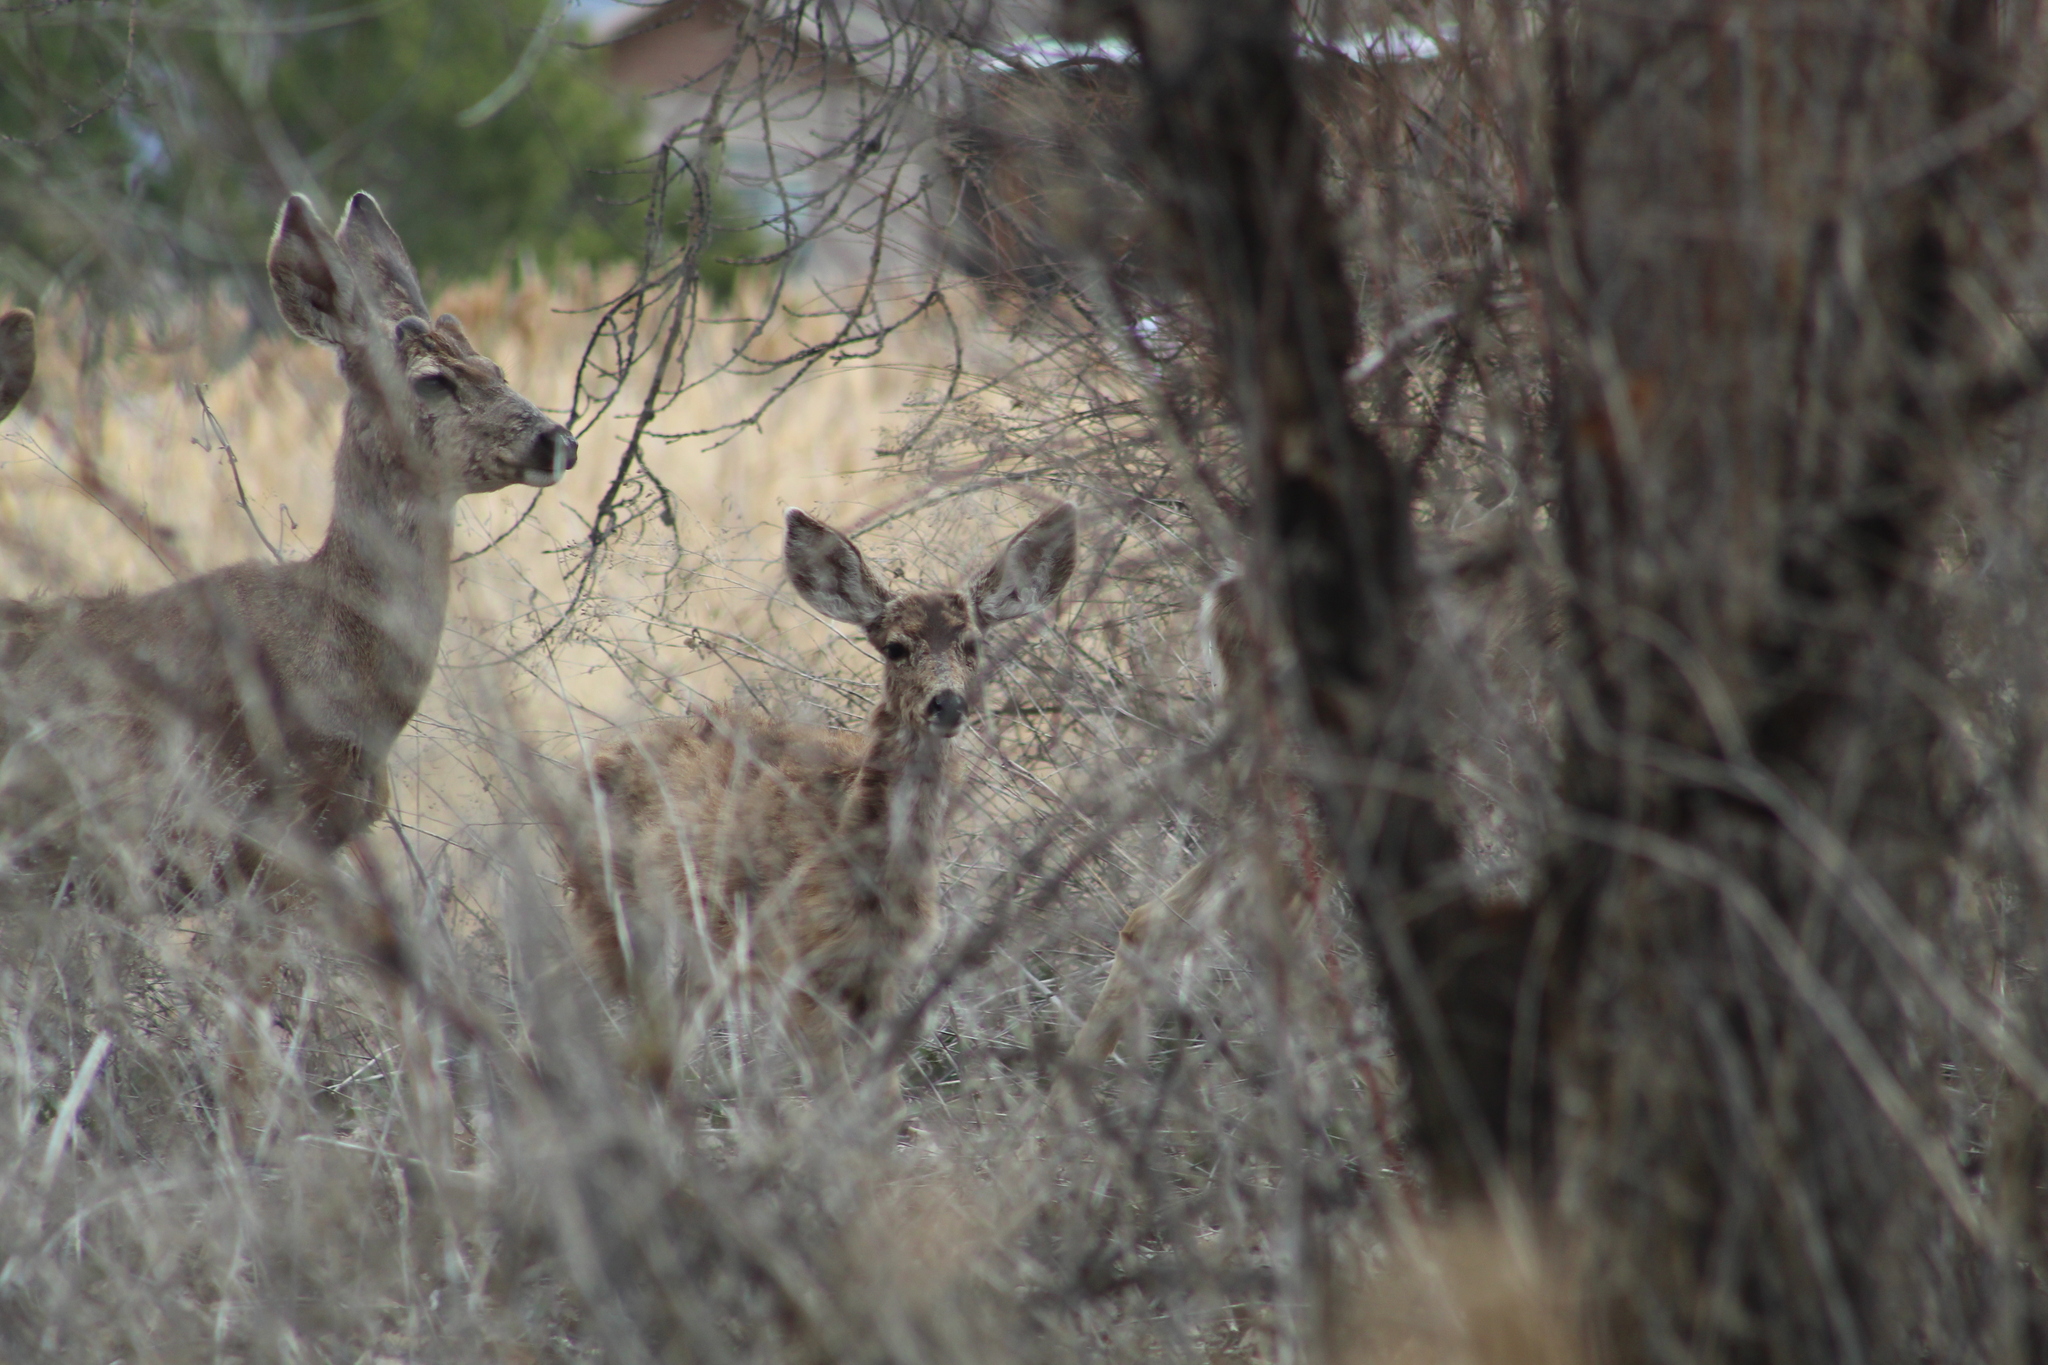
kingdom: Animalia
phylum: Chordata
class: Mammalia
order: Artiodactyla
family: Cervidae
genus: Odocoileus
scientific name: Odocoileus hemionus
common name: Mule deer
